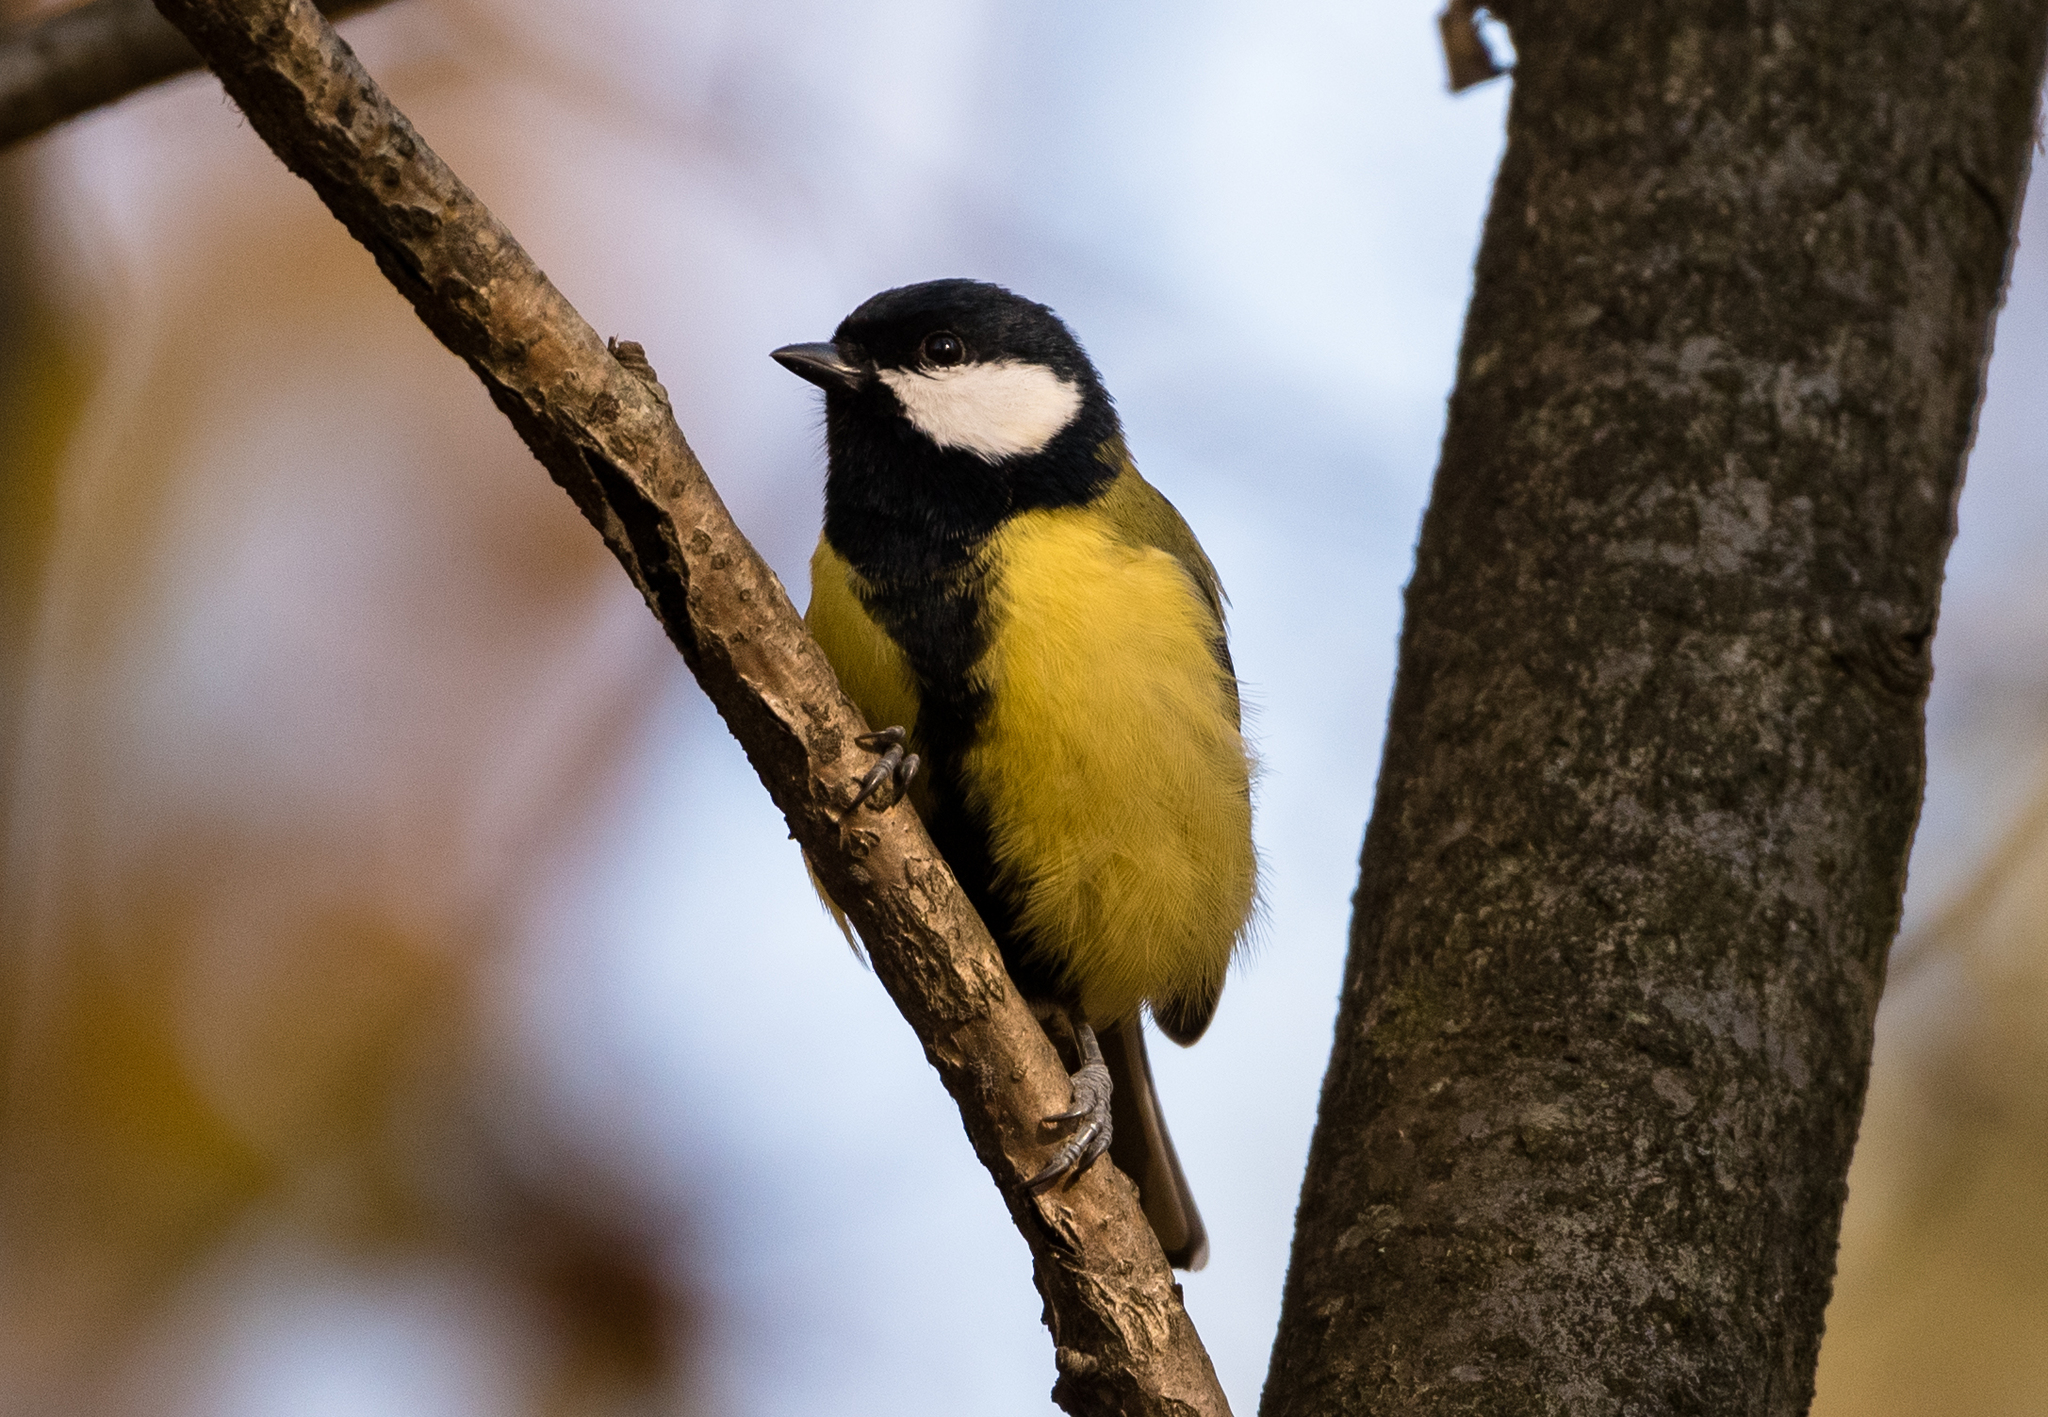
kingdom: Animalia
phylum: Chordata
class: Aves
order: Passeriformes
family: Paridae
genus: Parus
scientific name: Parus major
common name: Great tit
